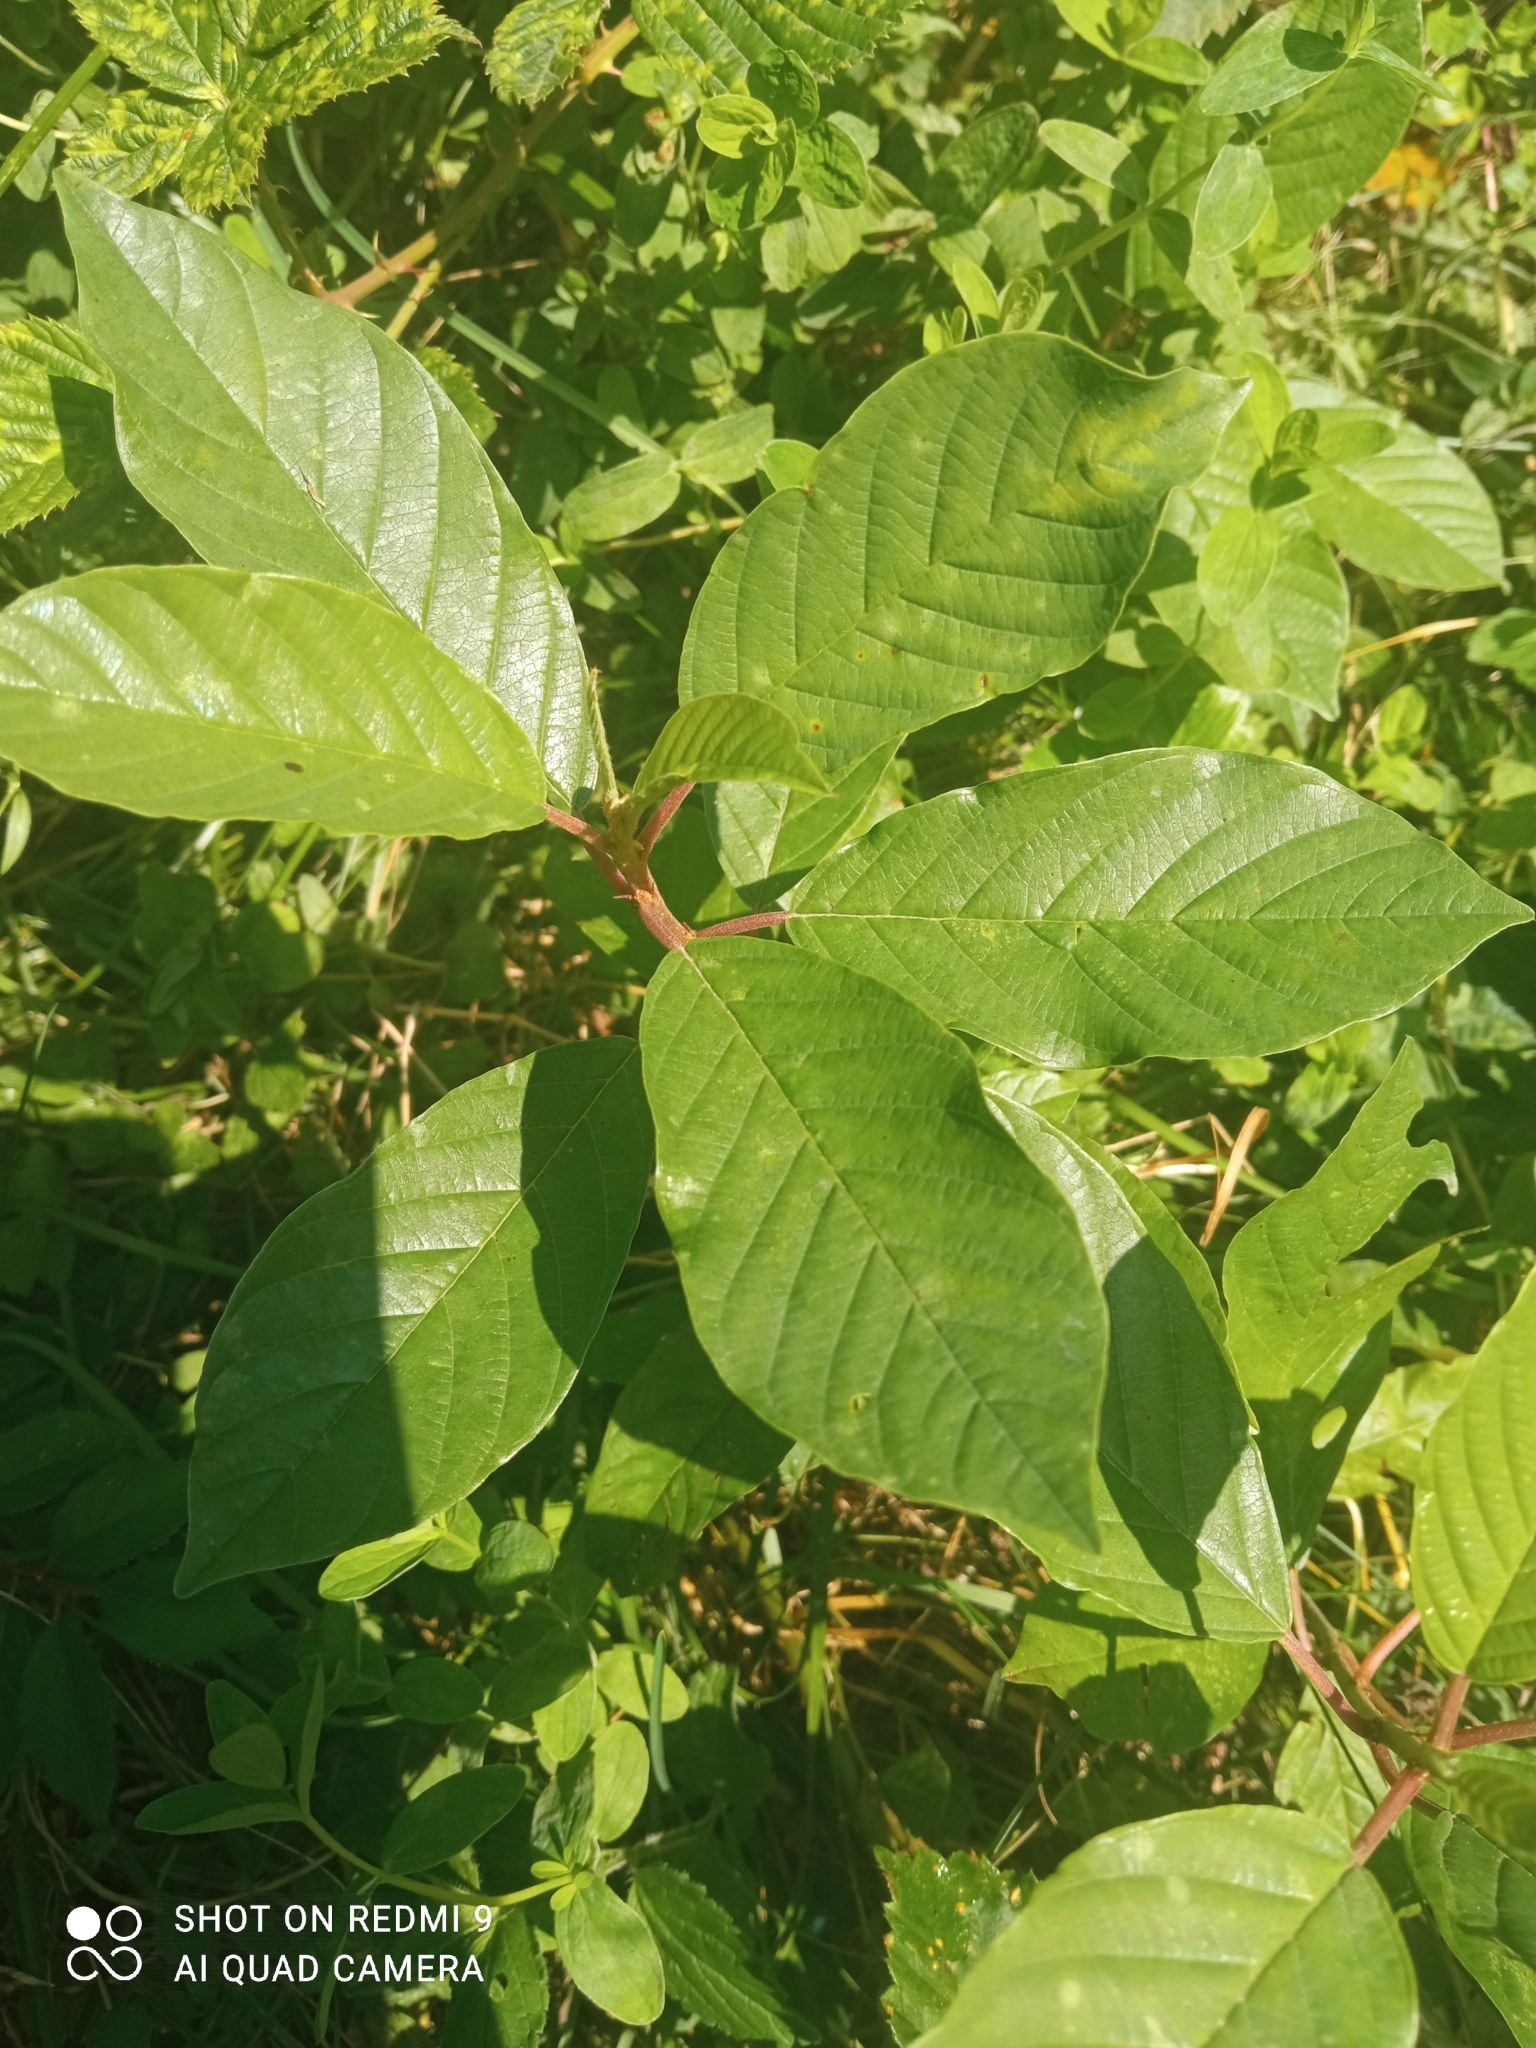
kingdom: Plantae
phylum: Tracheophyta
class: Magnoliopsida
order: Rosales
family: Rhamnaceae
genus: Frangula
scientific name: Frangula alnus
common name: Alder buckthorn
